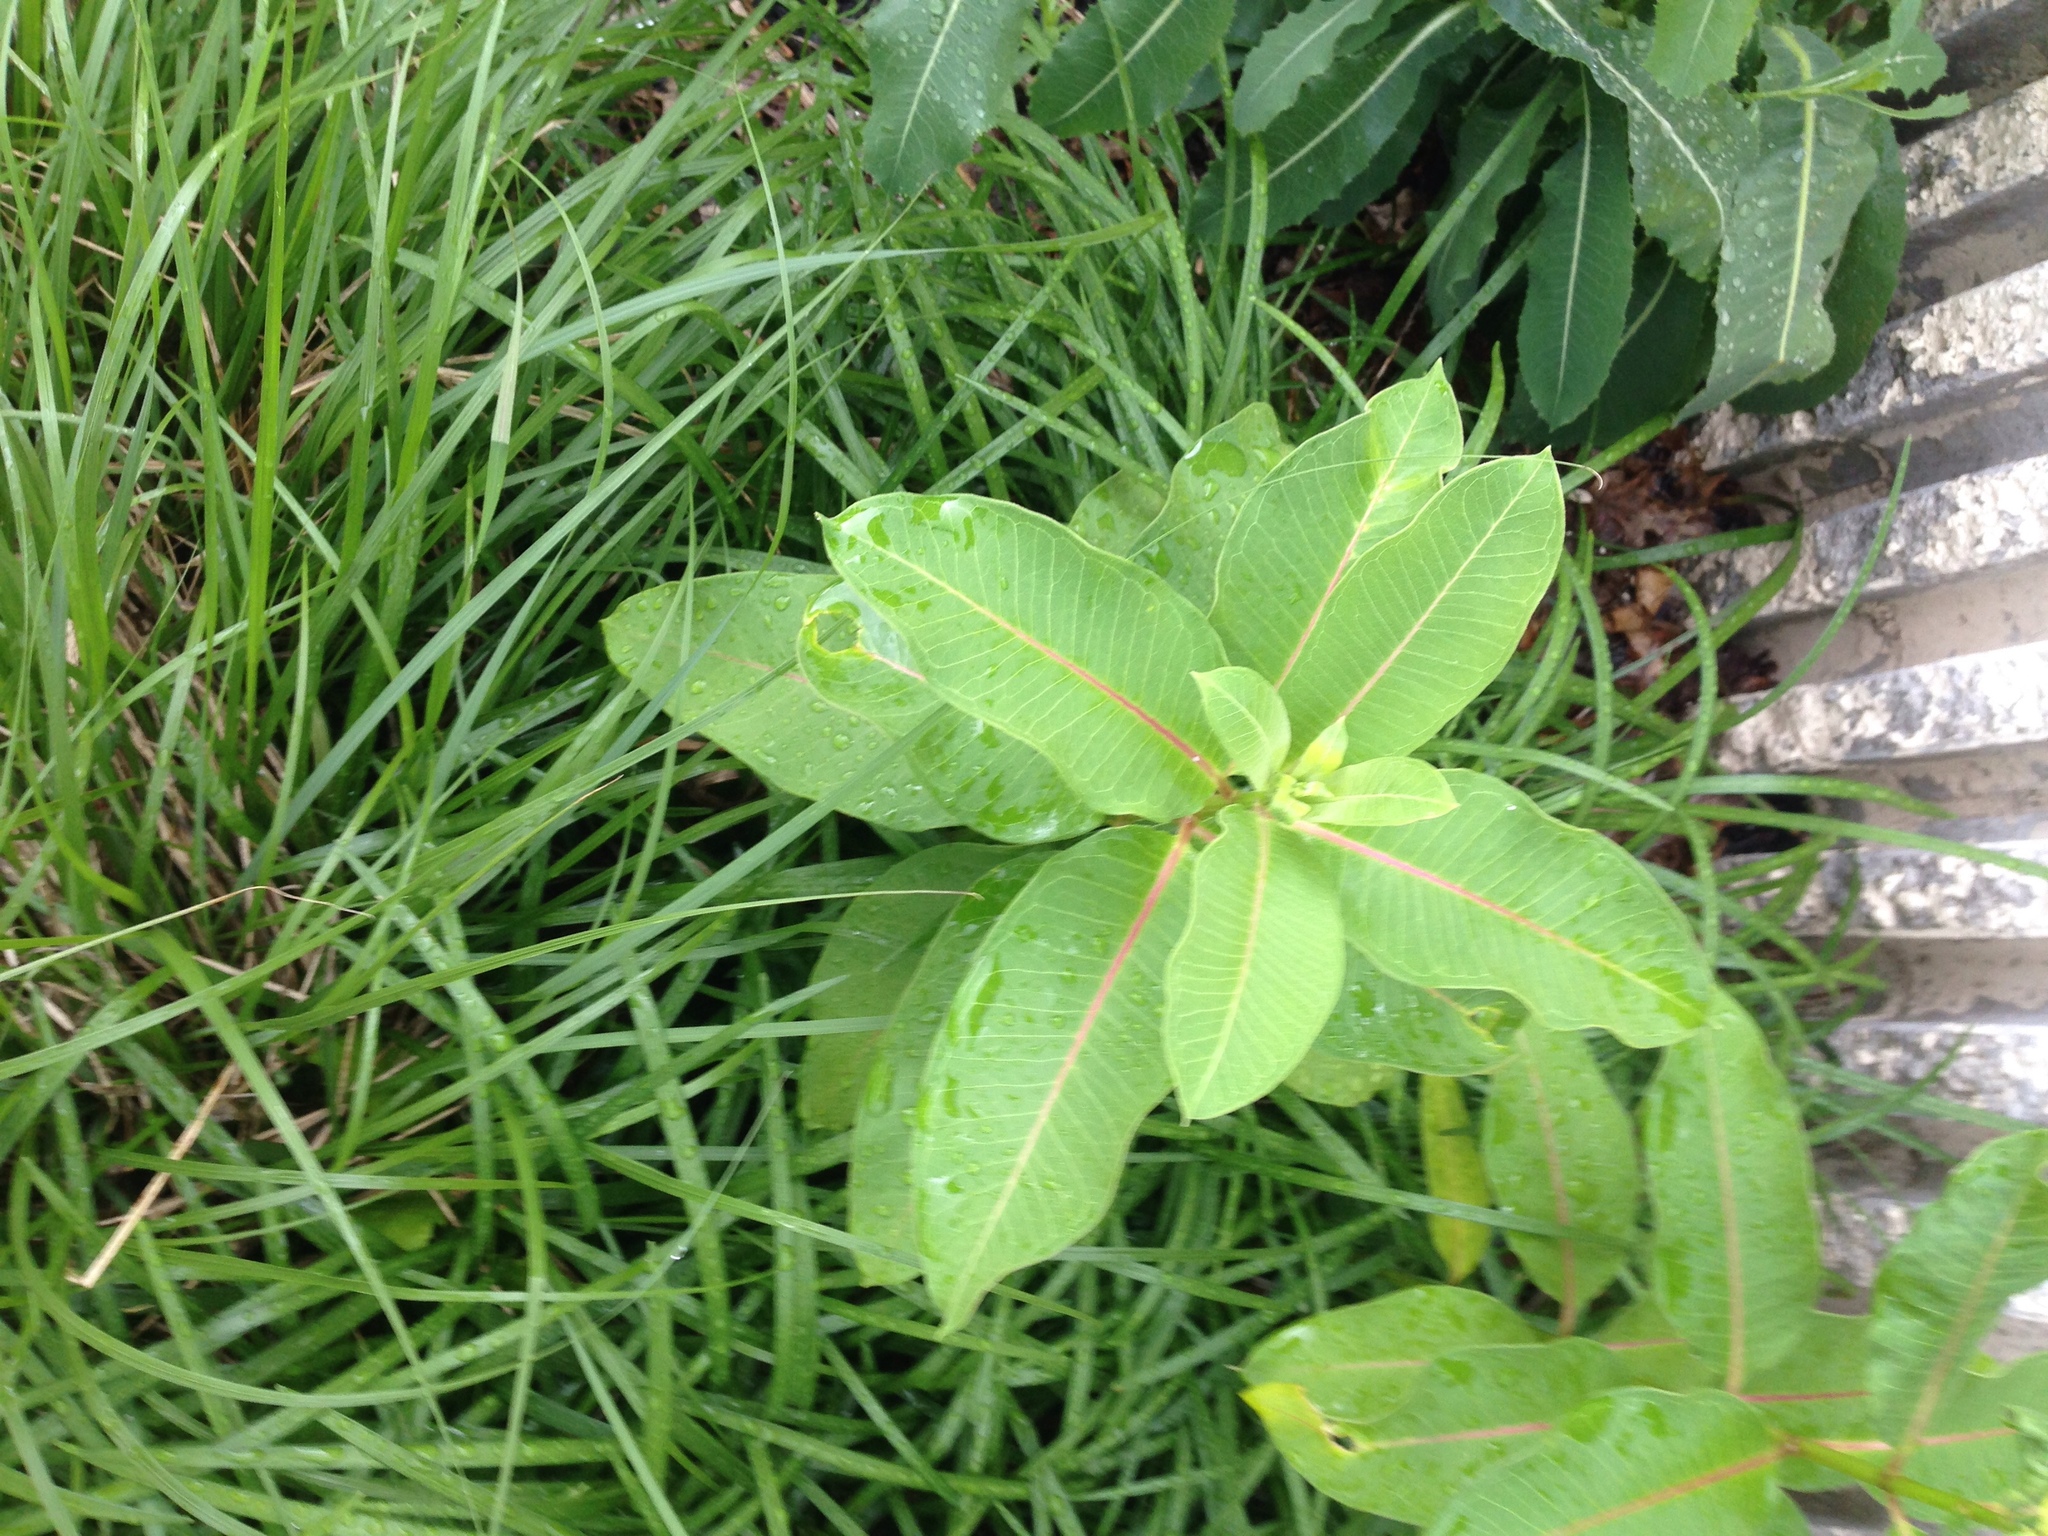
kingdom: Plantae
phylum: Tracheophyta
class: Magnoliopsida
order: Gentianales
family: Apocynaceae
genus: Asclepias
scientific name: Asclepias syriaca
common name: Common milkweed
